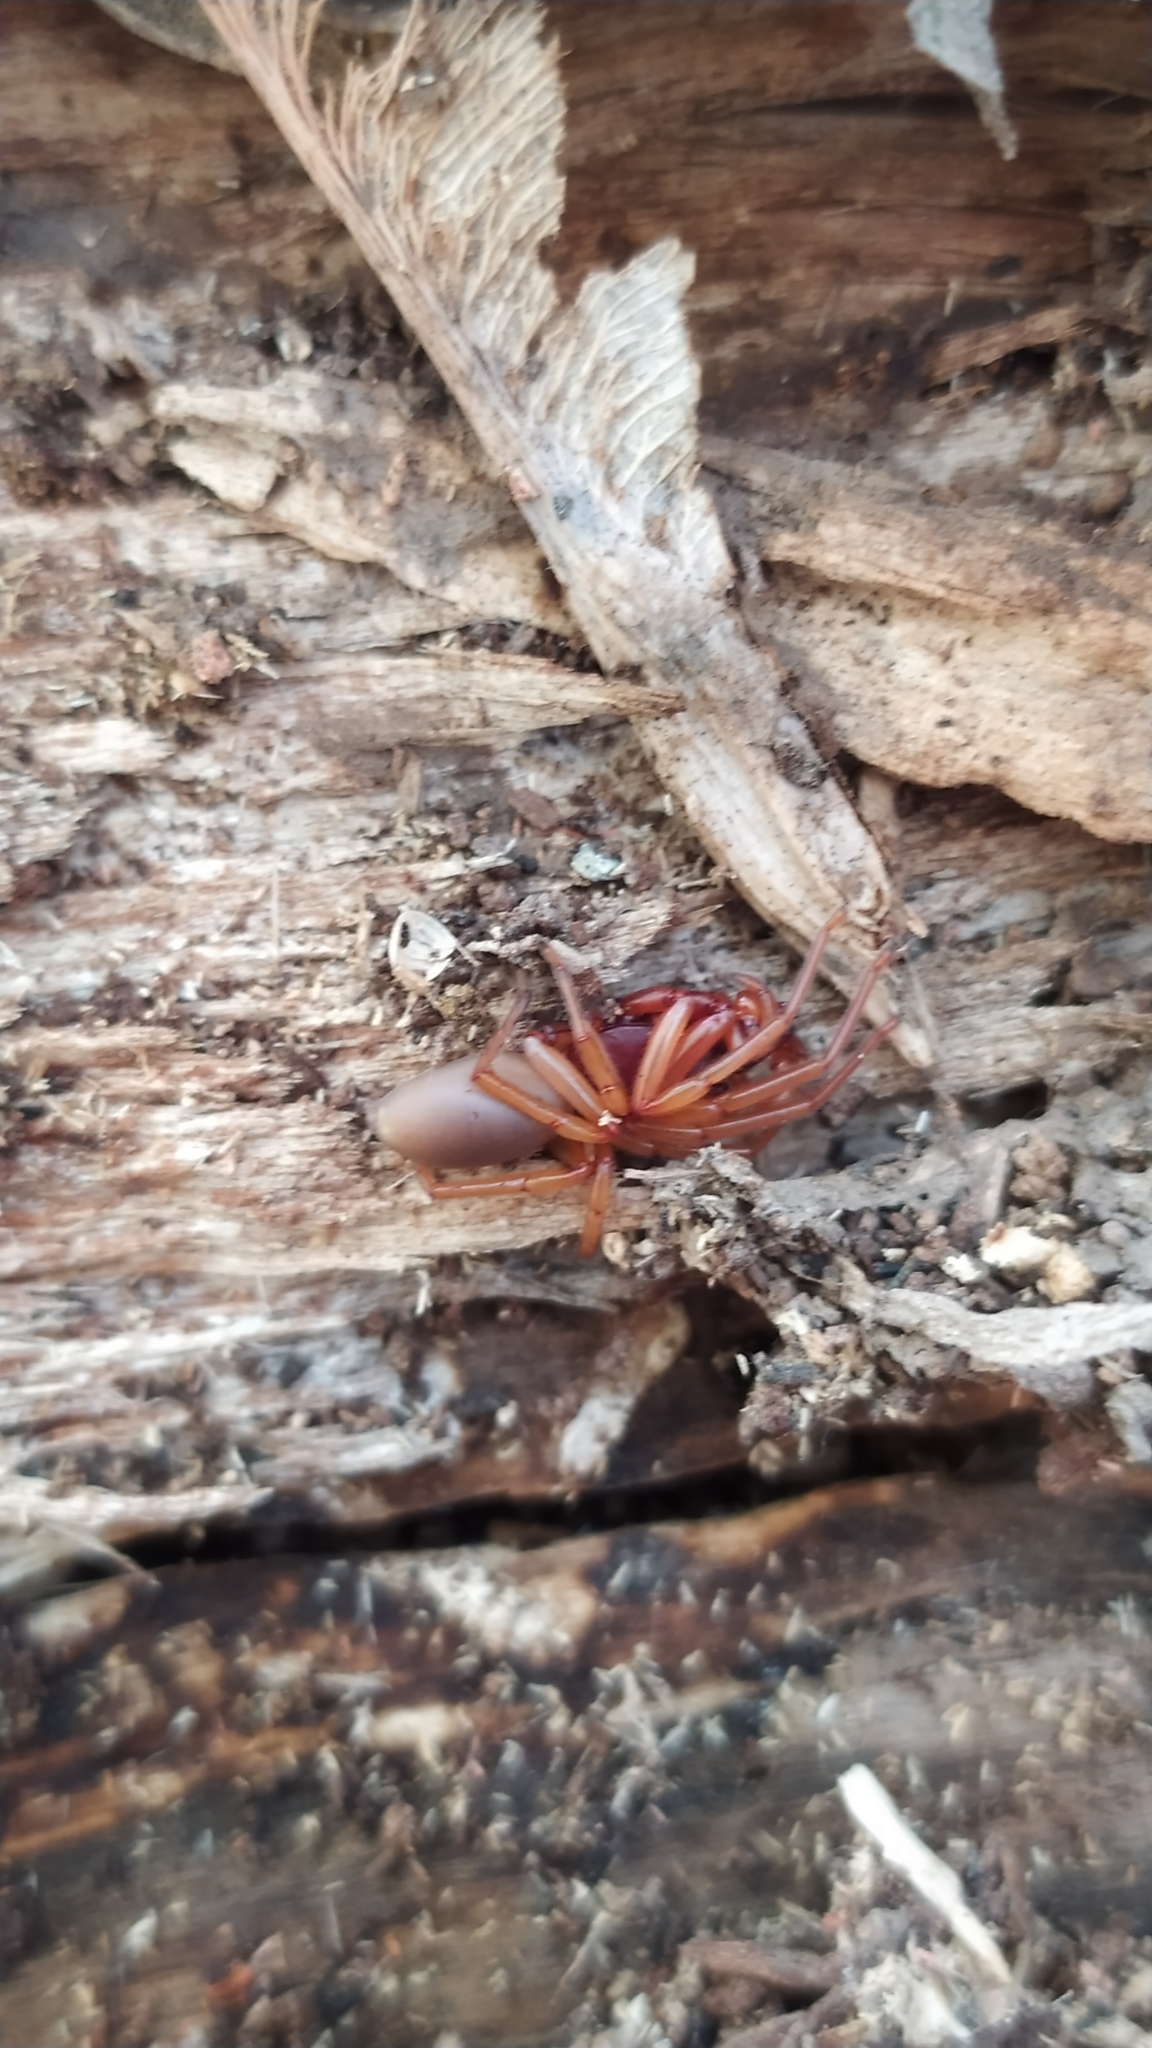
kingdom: Animalia
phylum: Arthropoda
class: Arachnida
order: Araneae
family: Dysderidae
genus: Dysdera
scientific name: Dysdera crocata
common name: Woodlouse spider
